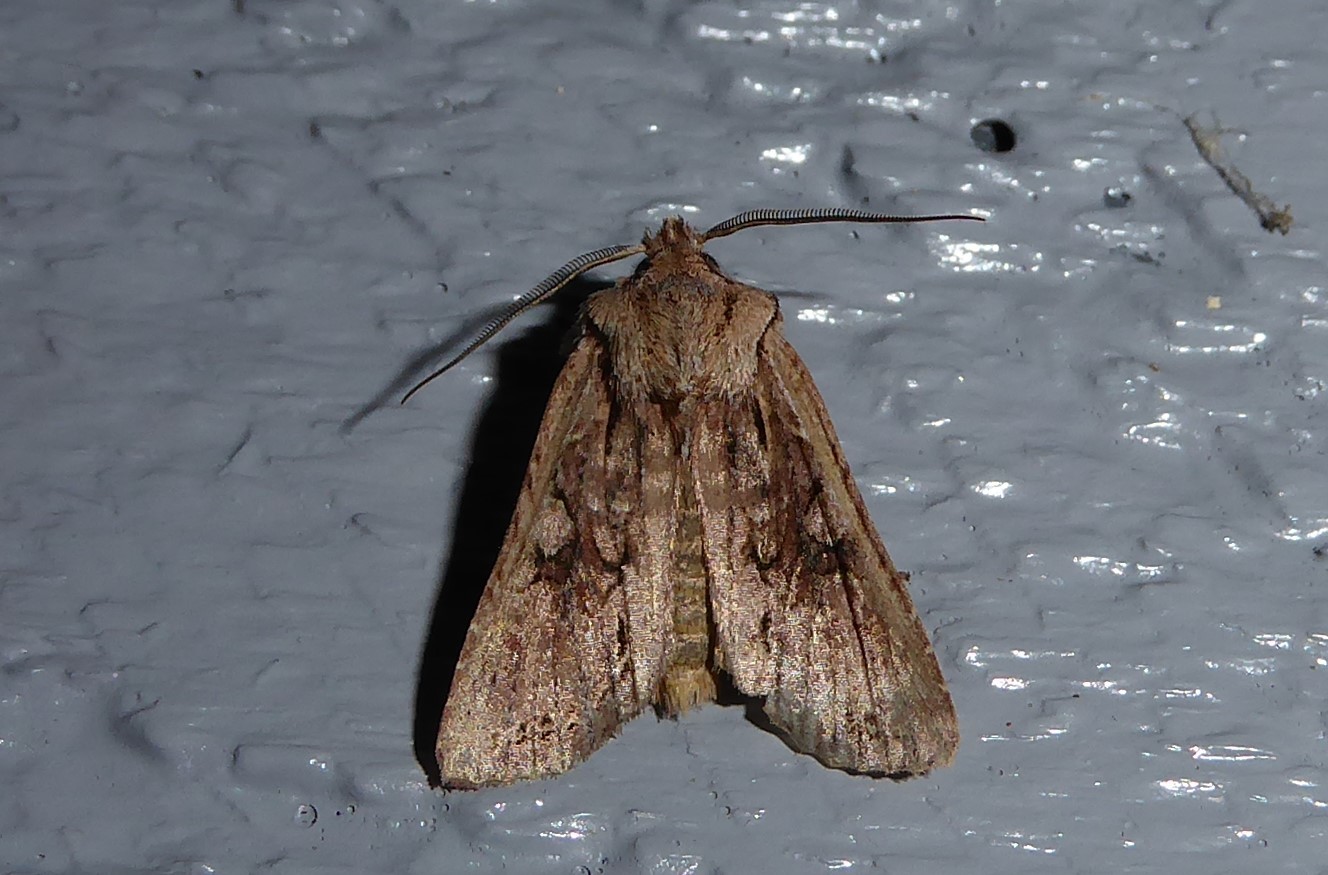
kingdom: Animalia
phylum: Arthropoda
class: Insecta
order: Lepidoptera
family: Noctuidae
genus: Ichneutica
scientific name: Ichneutica
